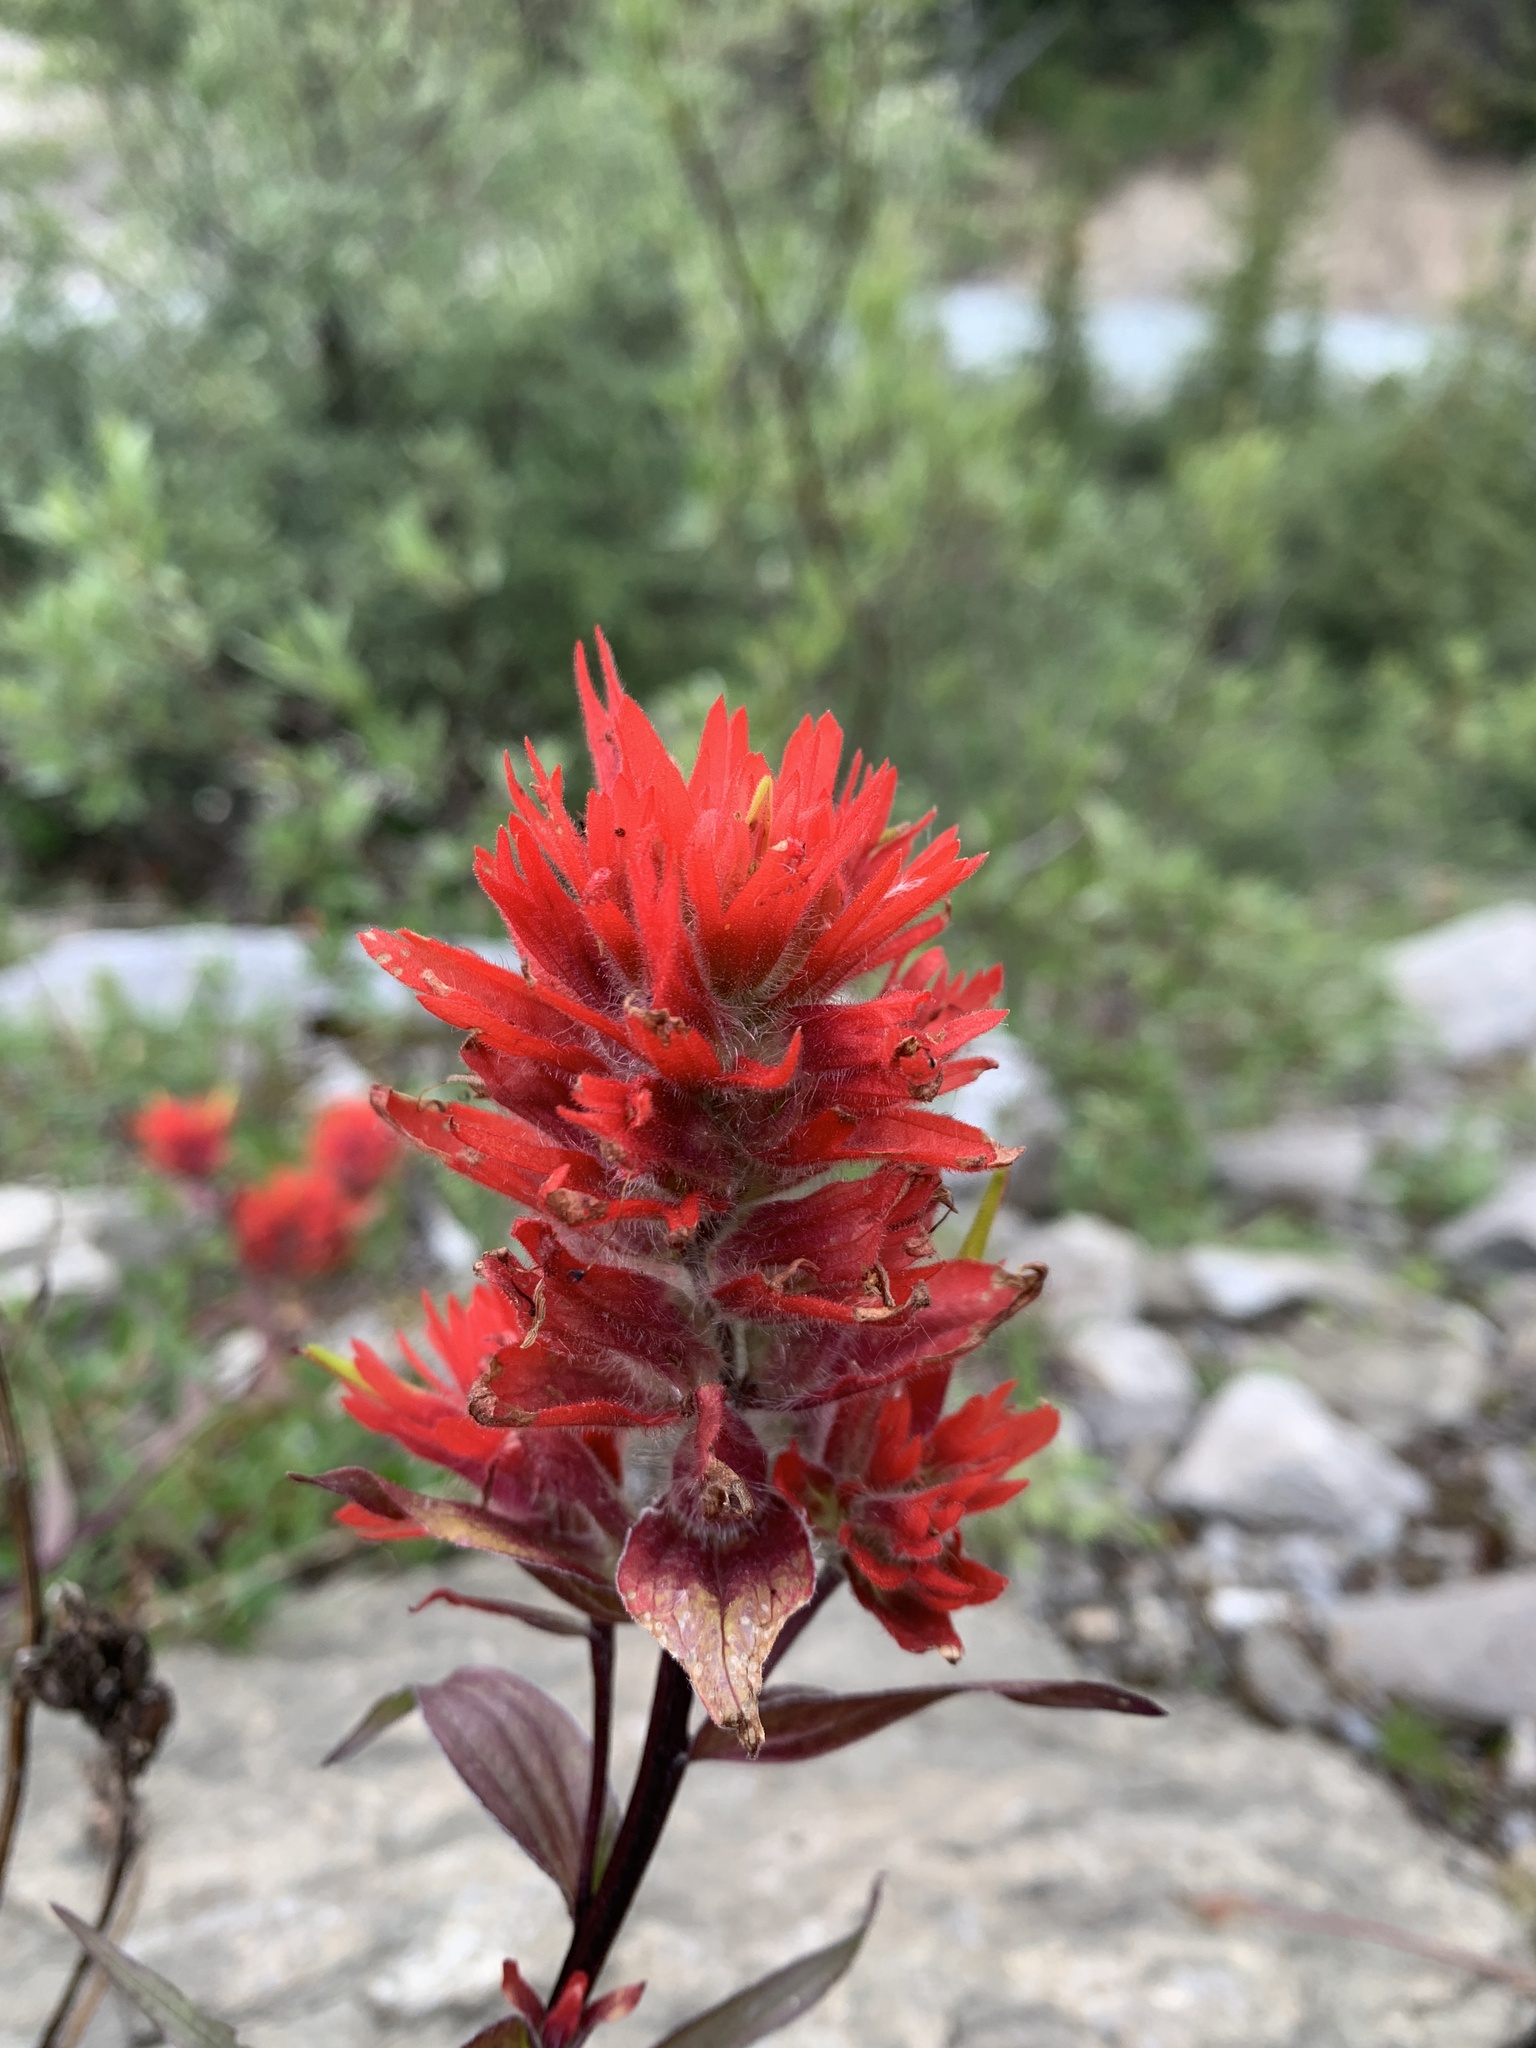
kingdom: Plantae
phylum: Tracheophyta
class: Magnoliopsida
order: Lamiales
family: Orobanchaceae
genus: Castilleja
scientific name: Castilleja miniata
